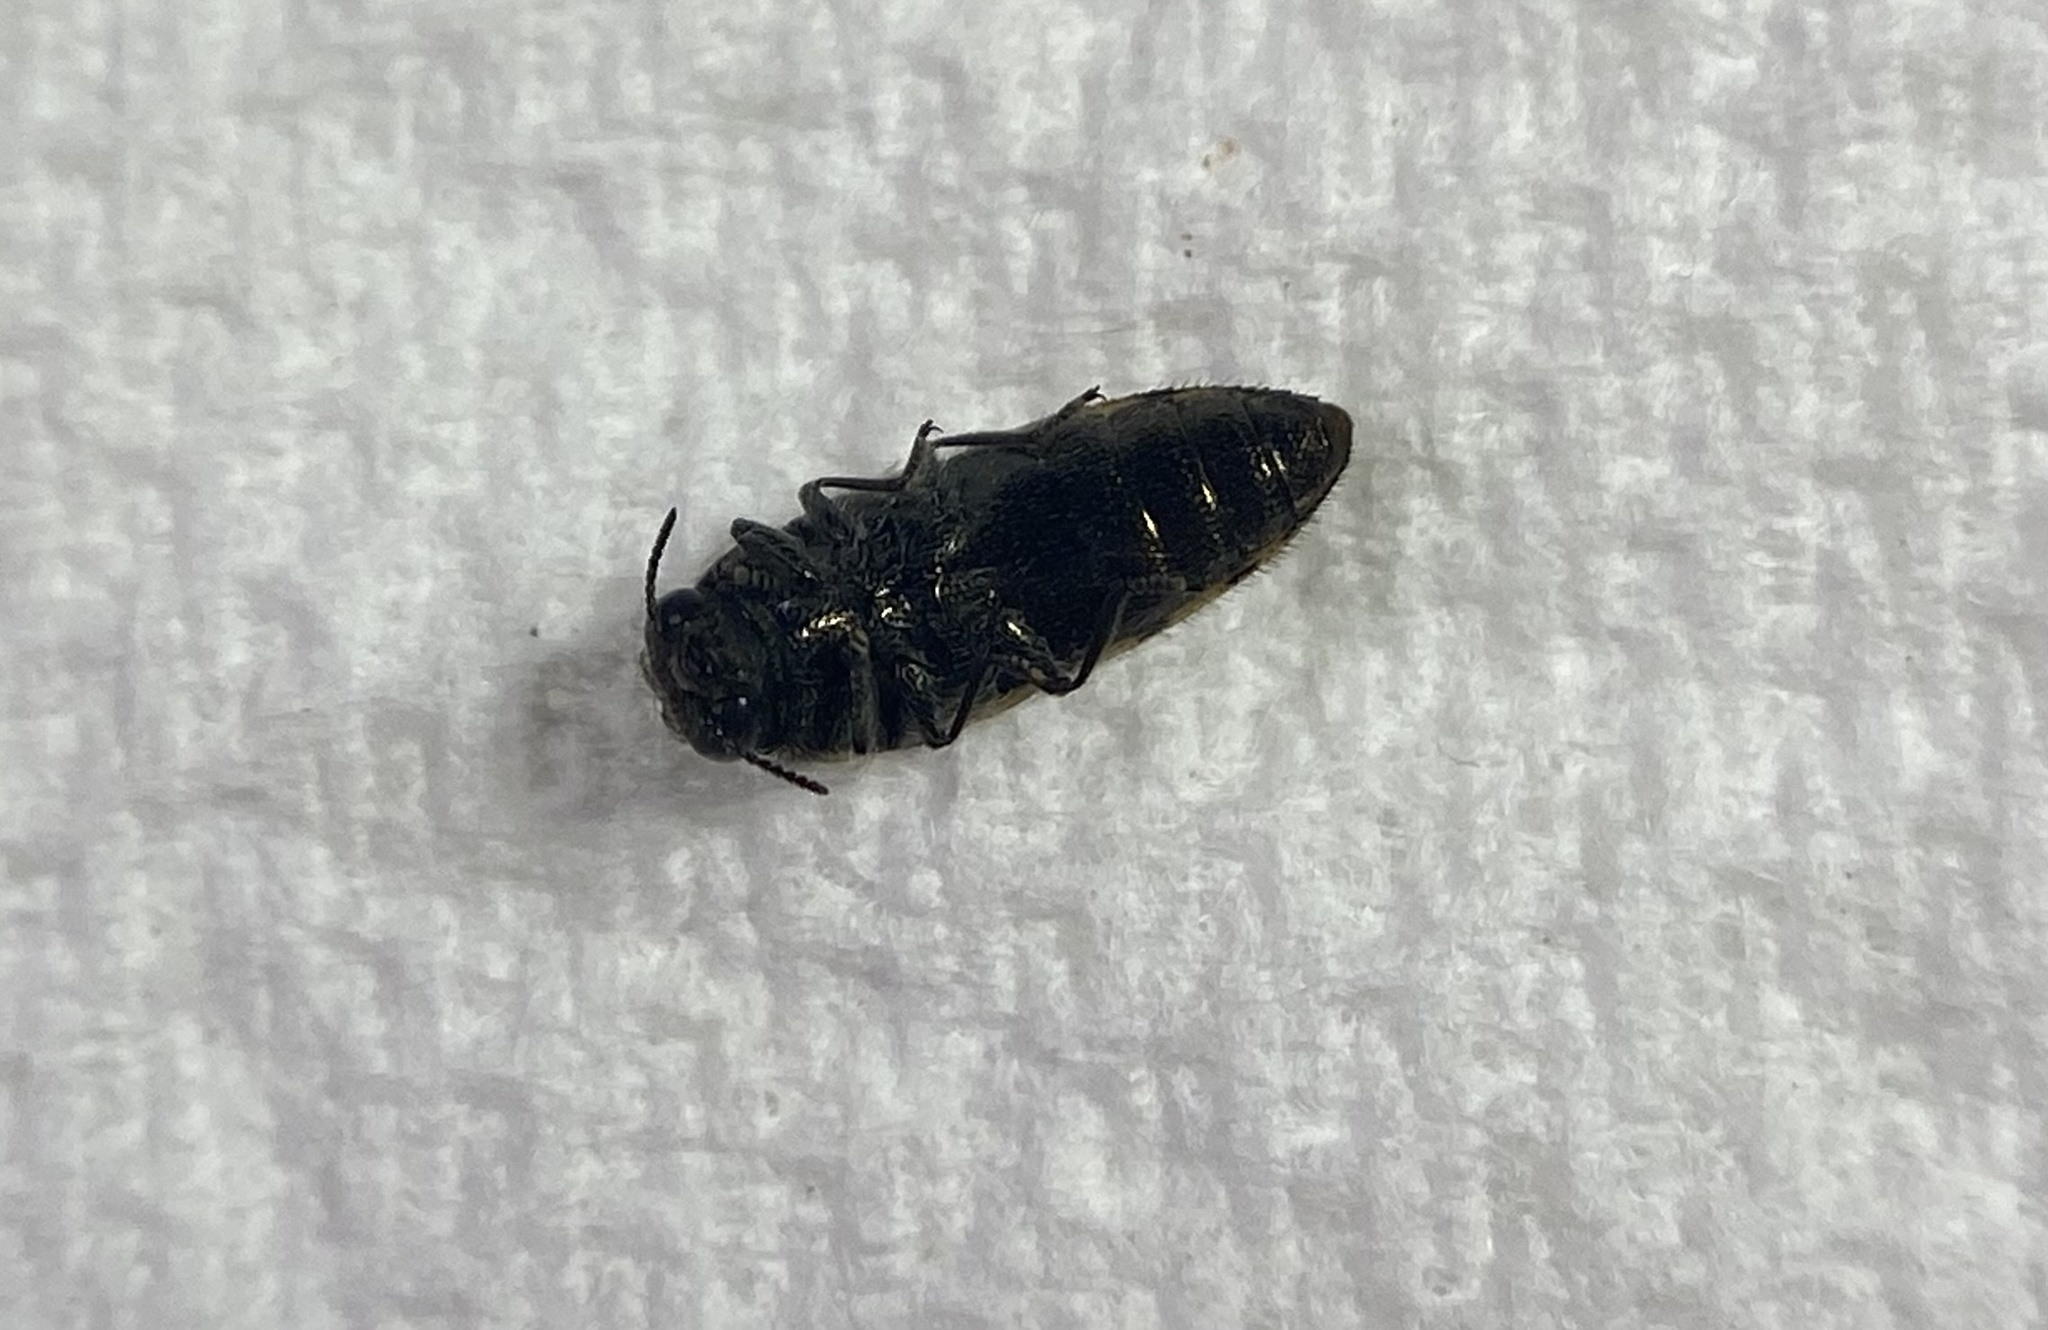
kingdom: Animalia
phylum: Arthropoda
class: Insecta
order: Coleoptera
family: Buprestidae
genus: Acmaeodera
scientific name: Acmaeodera variegata
